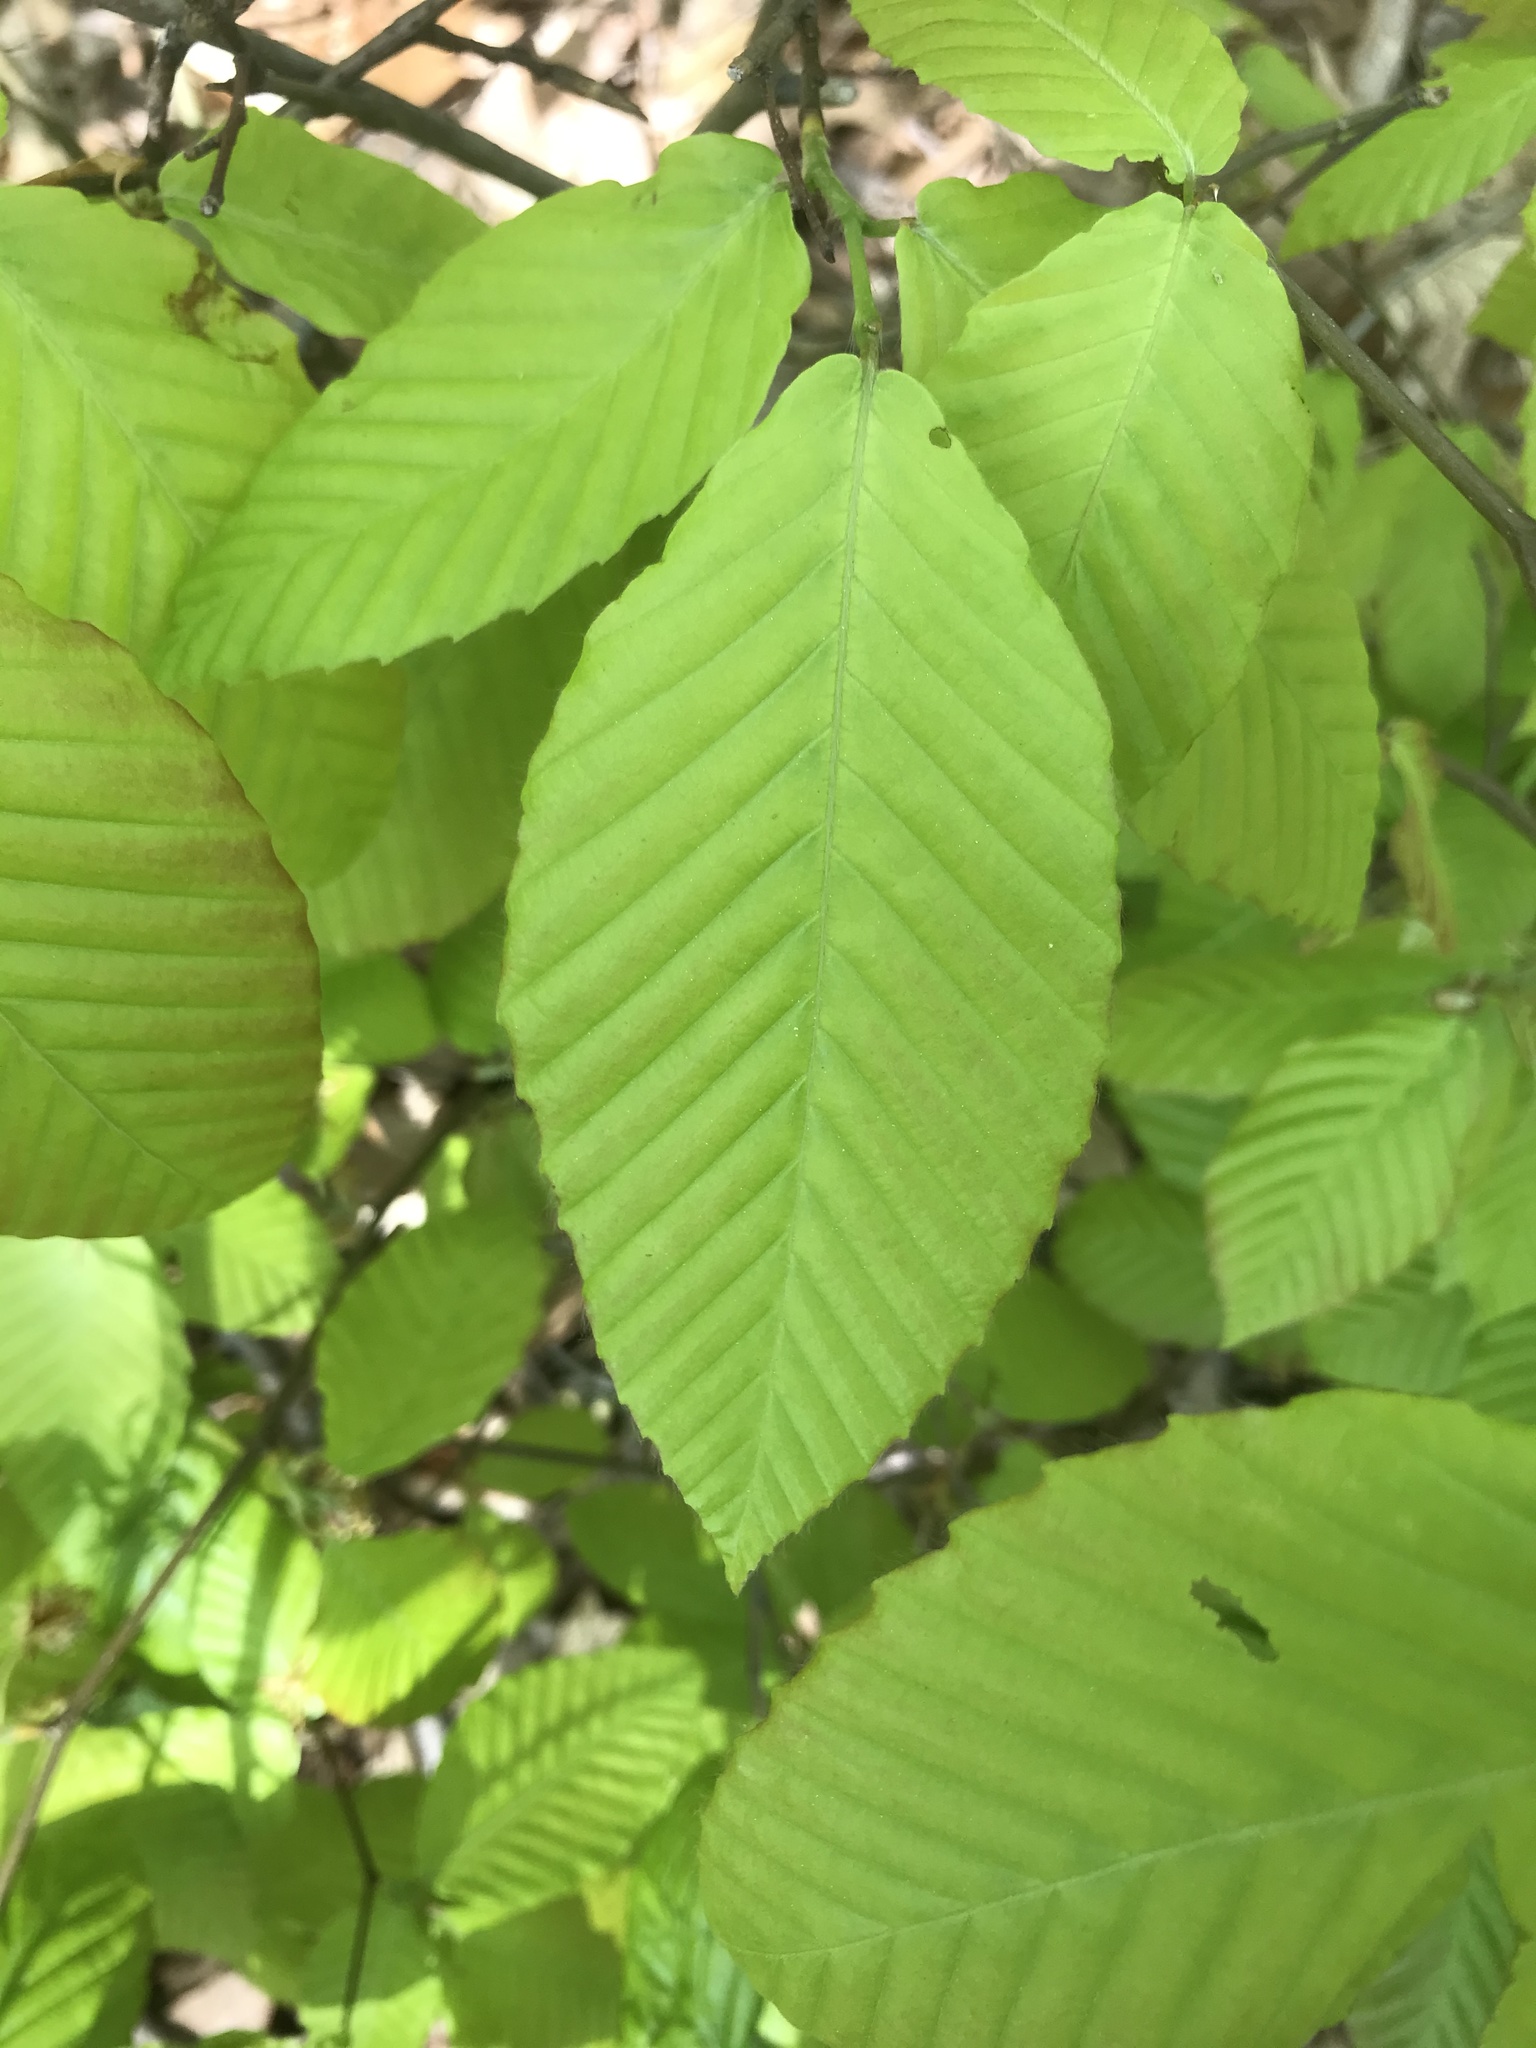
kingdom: Plantae
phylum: Tracheophyta
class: Magnoliopsida
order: Fagales
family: Fagaceae
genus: Fagus
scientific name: Fagus grandifolia
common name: American beech
